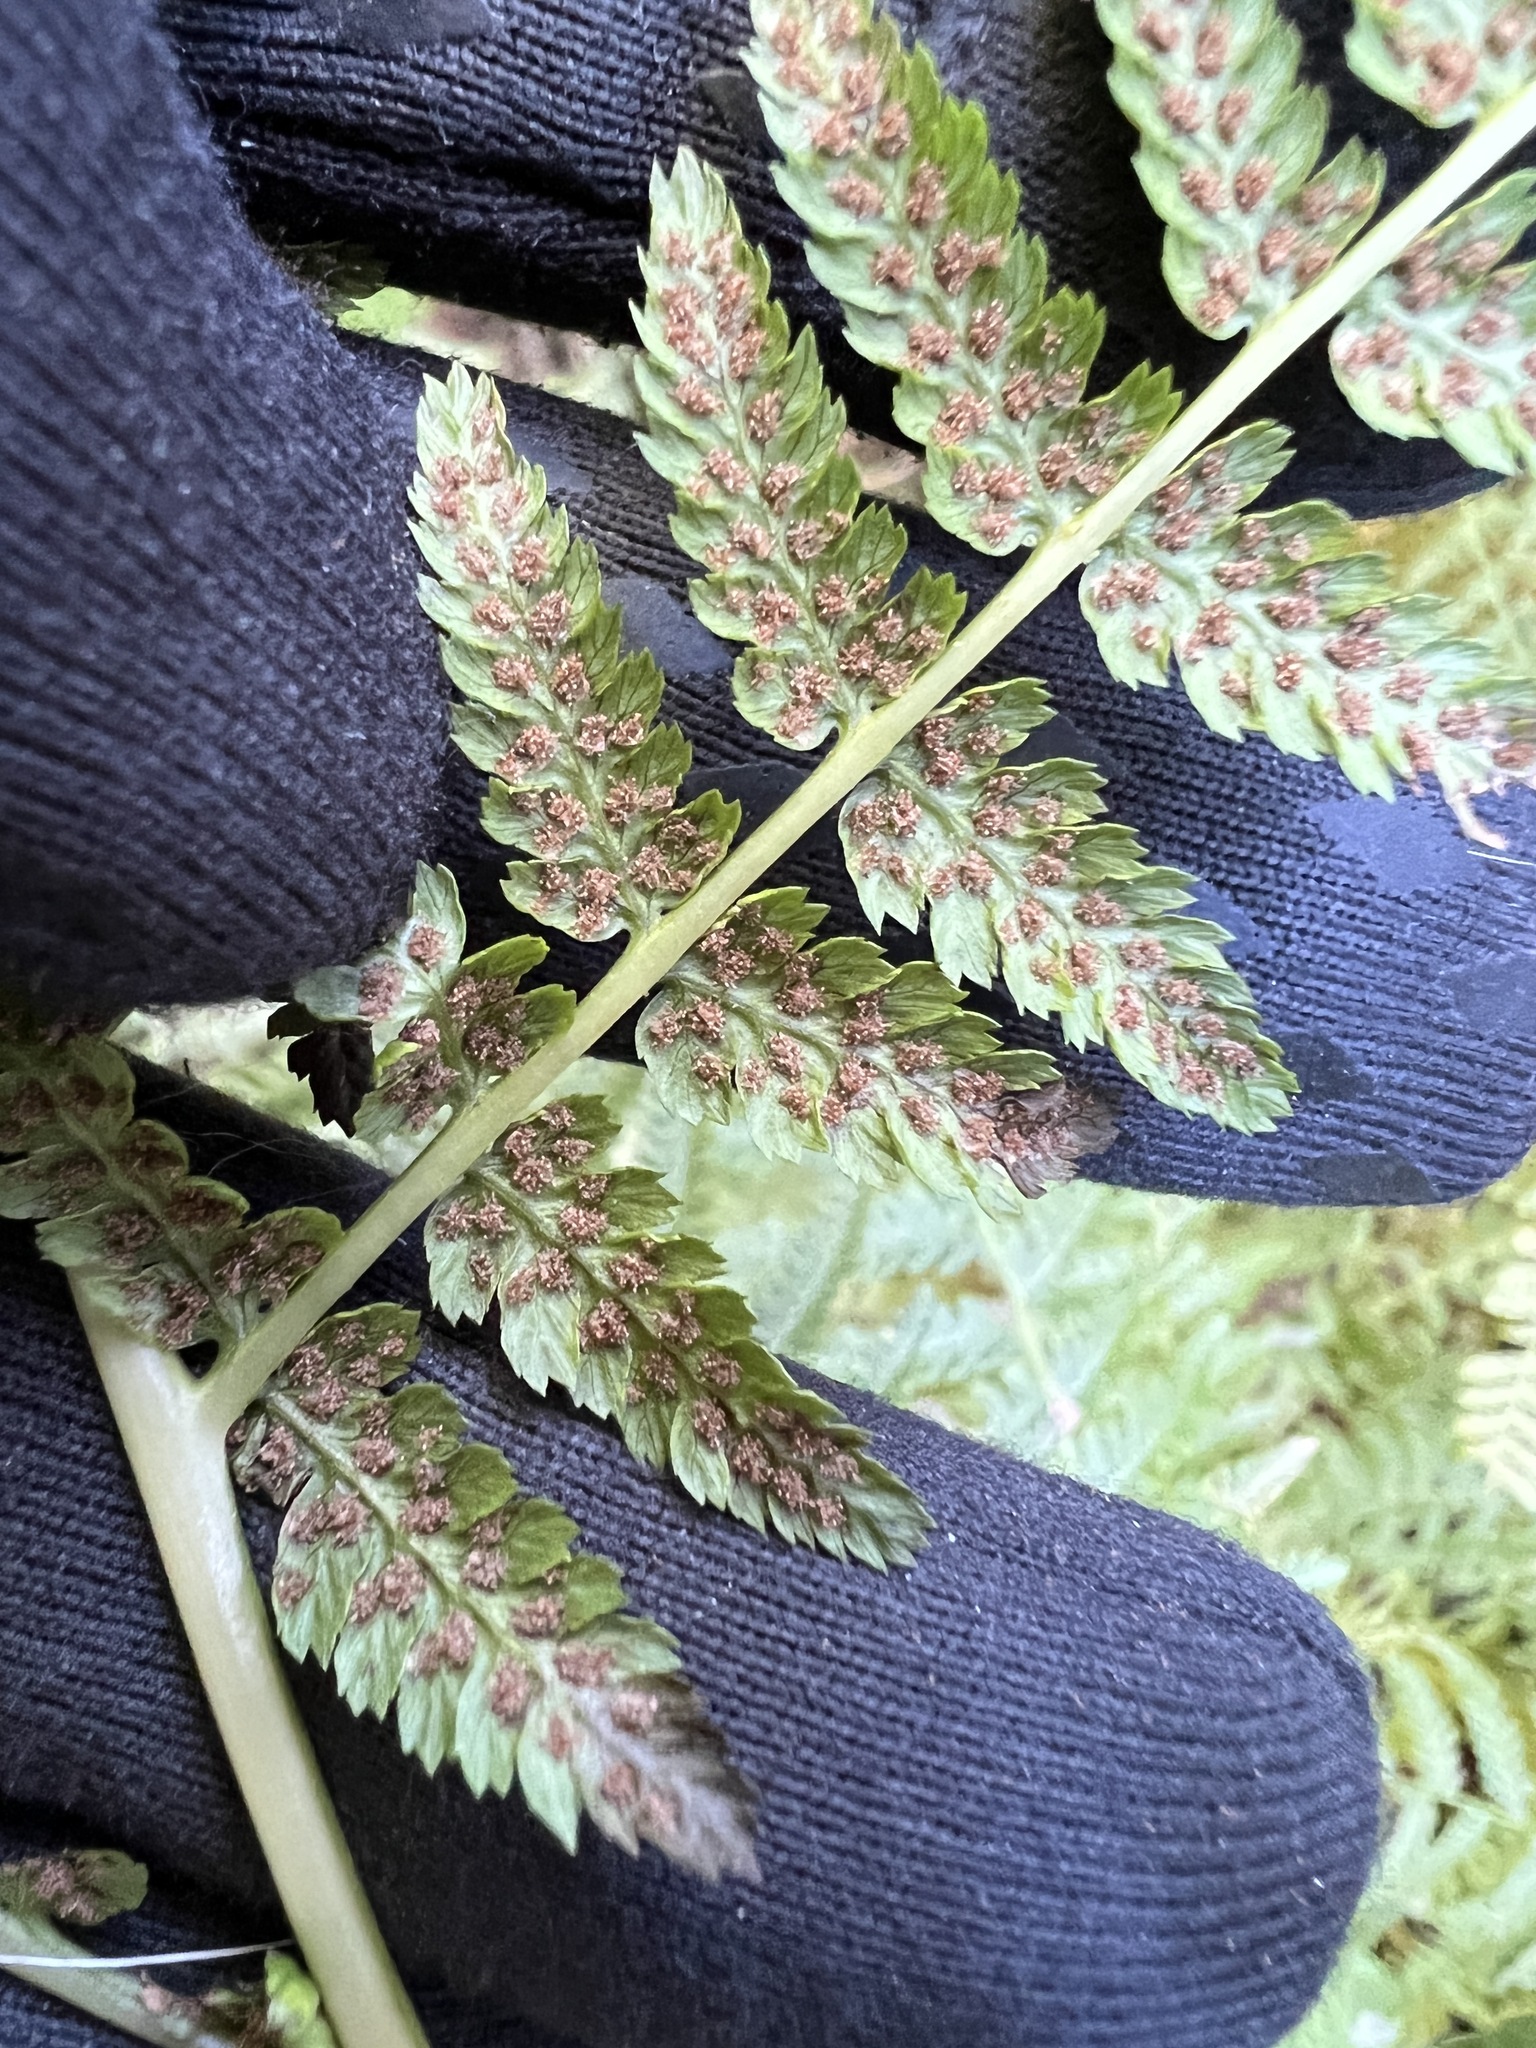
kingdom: Plantae
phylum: Tracheophyta
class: Polypodiopsida
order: Polypodiales
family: Athyriaceae
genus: Athyrium
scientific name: Athyrium cyclosorum
